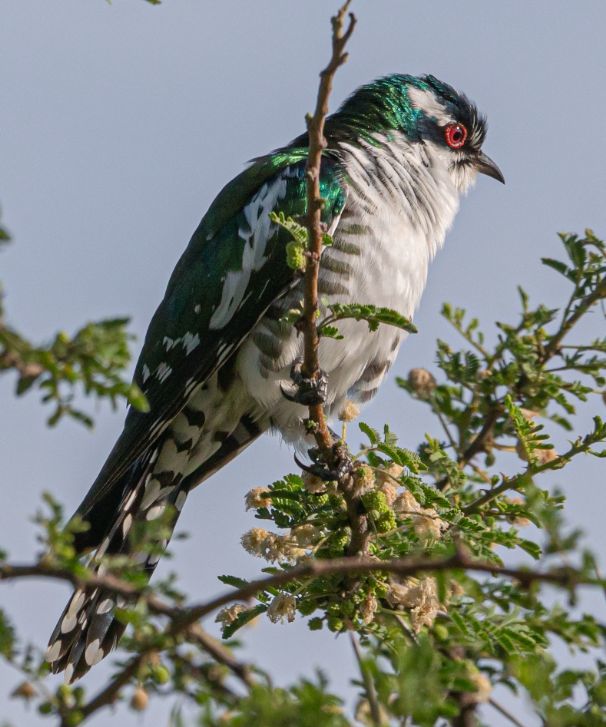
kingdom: Animalia
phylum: Chordata
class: Aves
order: Cuculiformes
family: Cuculidae
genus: Chrysococcyx
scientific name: Chrysococcyx caprius
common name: Diederik cuckoo
